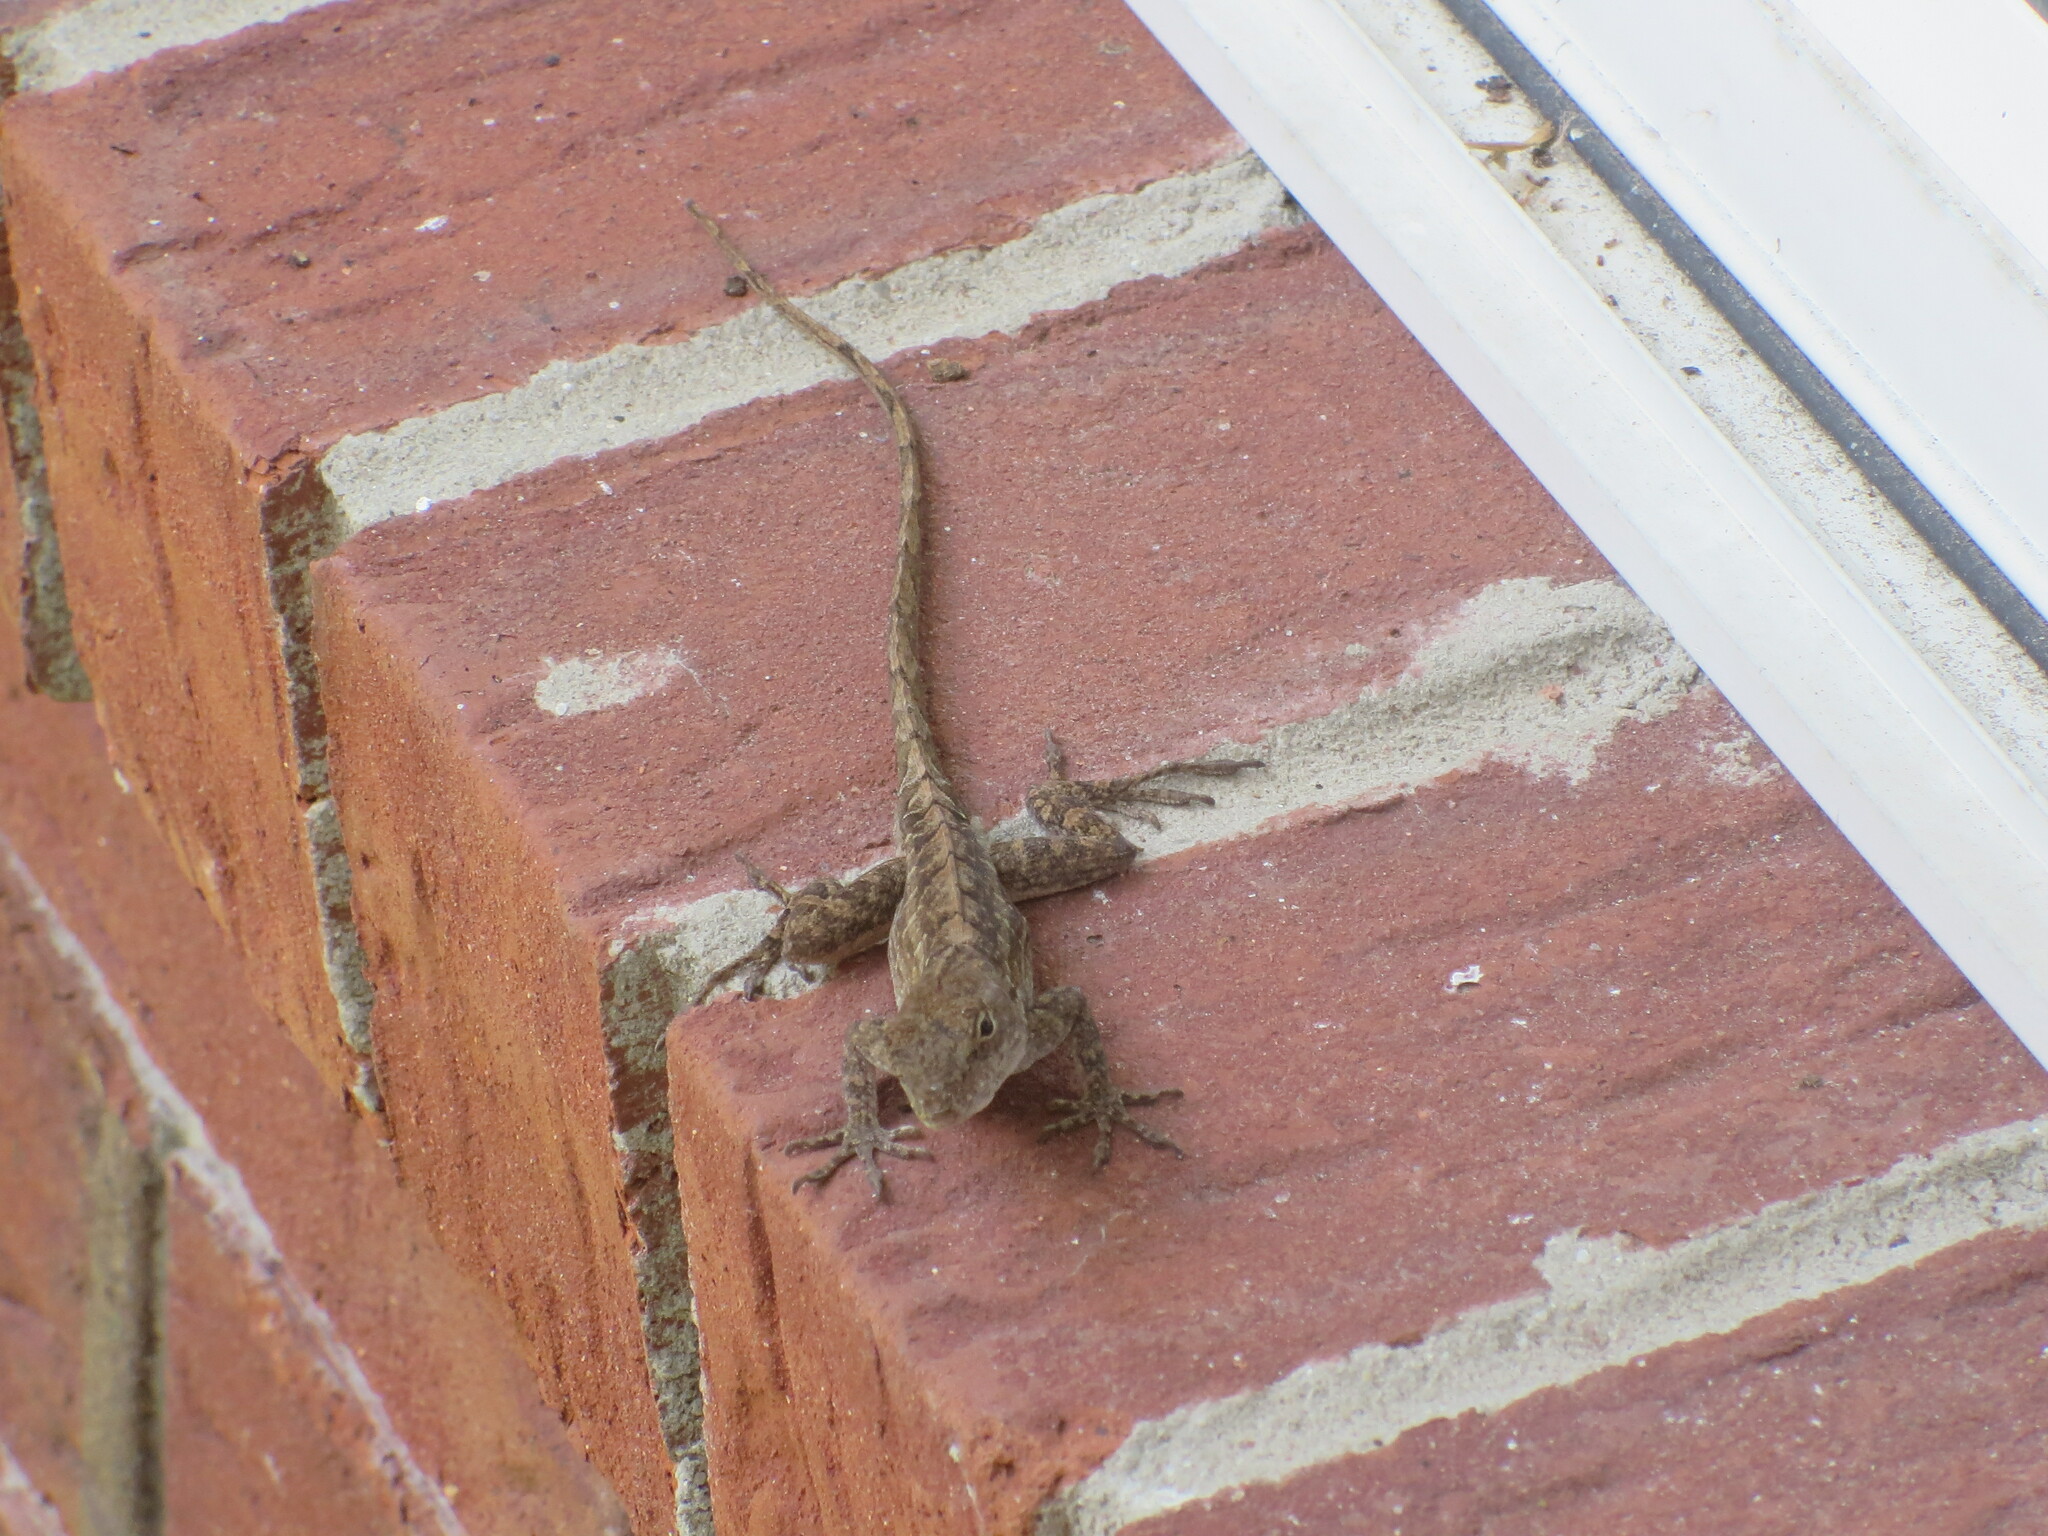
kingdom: Animalia
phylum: Chordata
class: Squamata
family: Dactyloidae
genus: Anolis
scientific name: Anolis sagrei
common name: Brown anole
